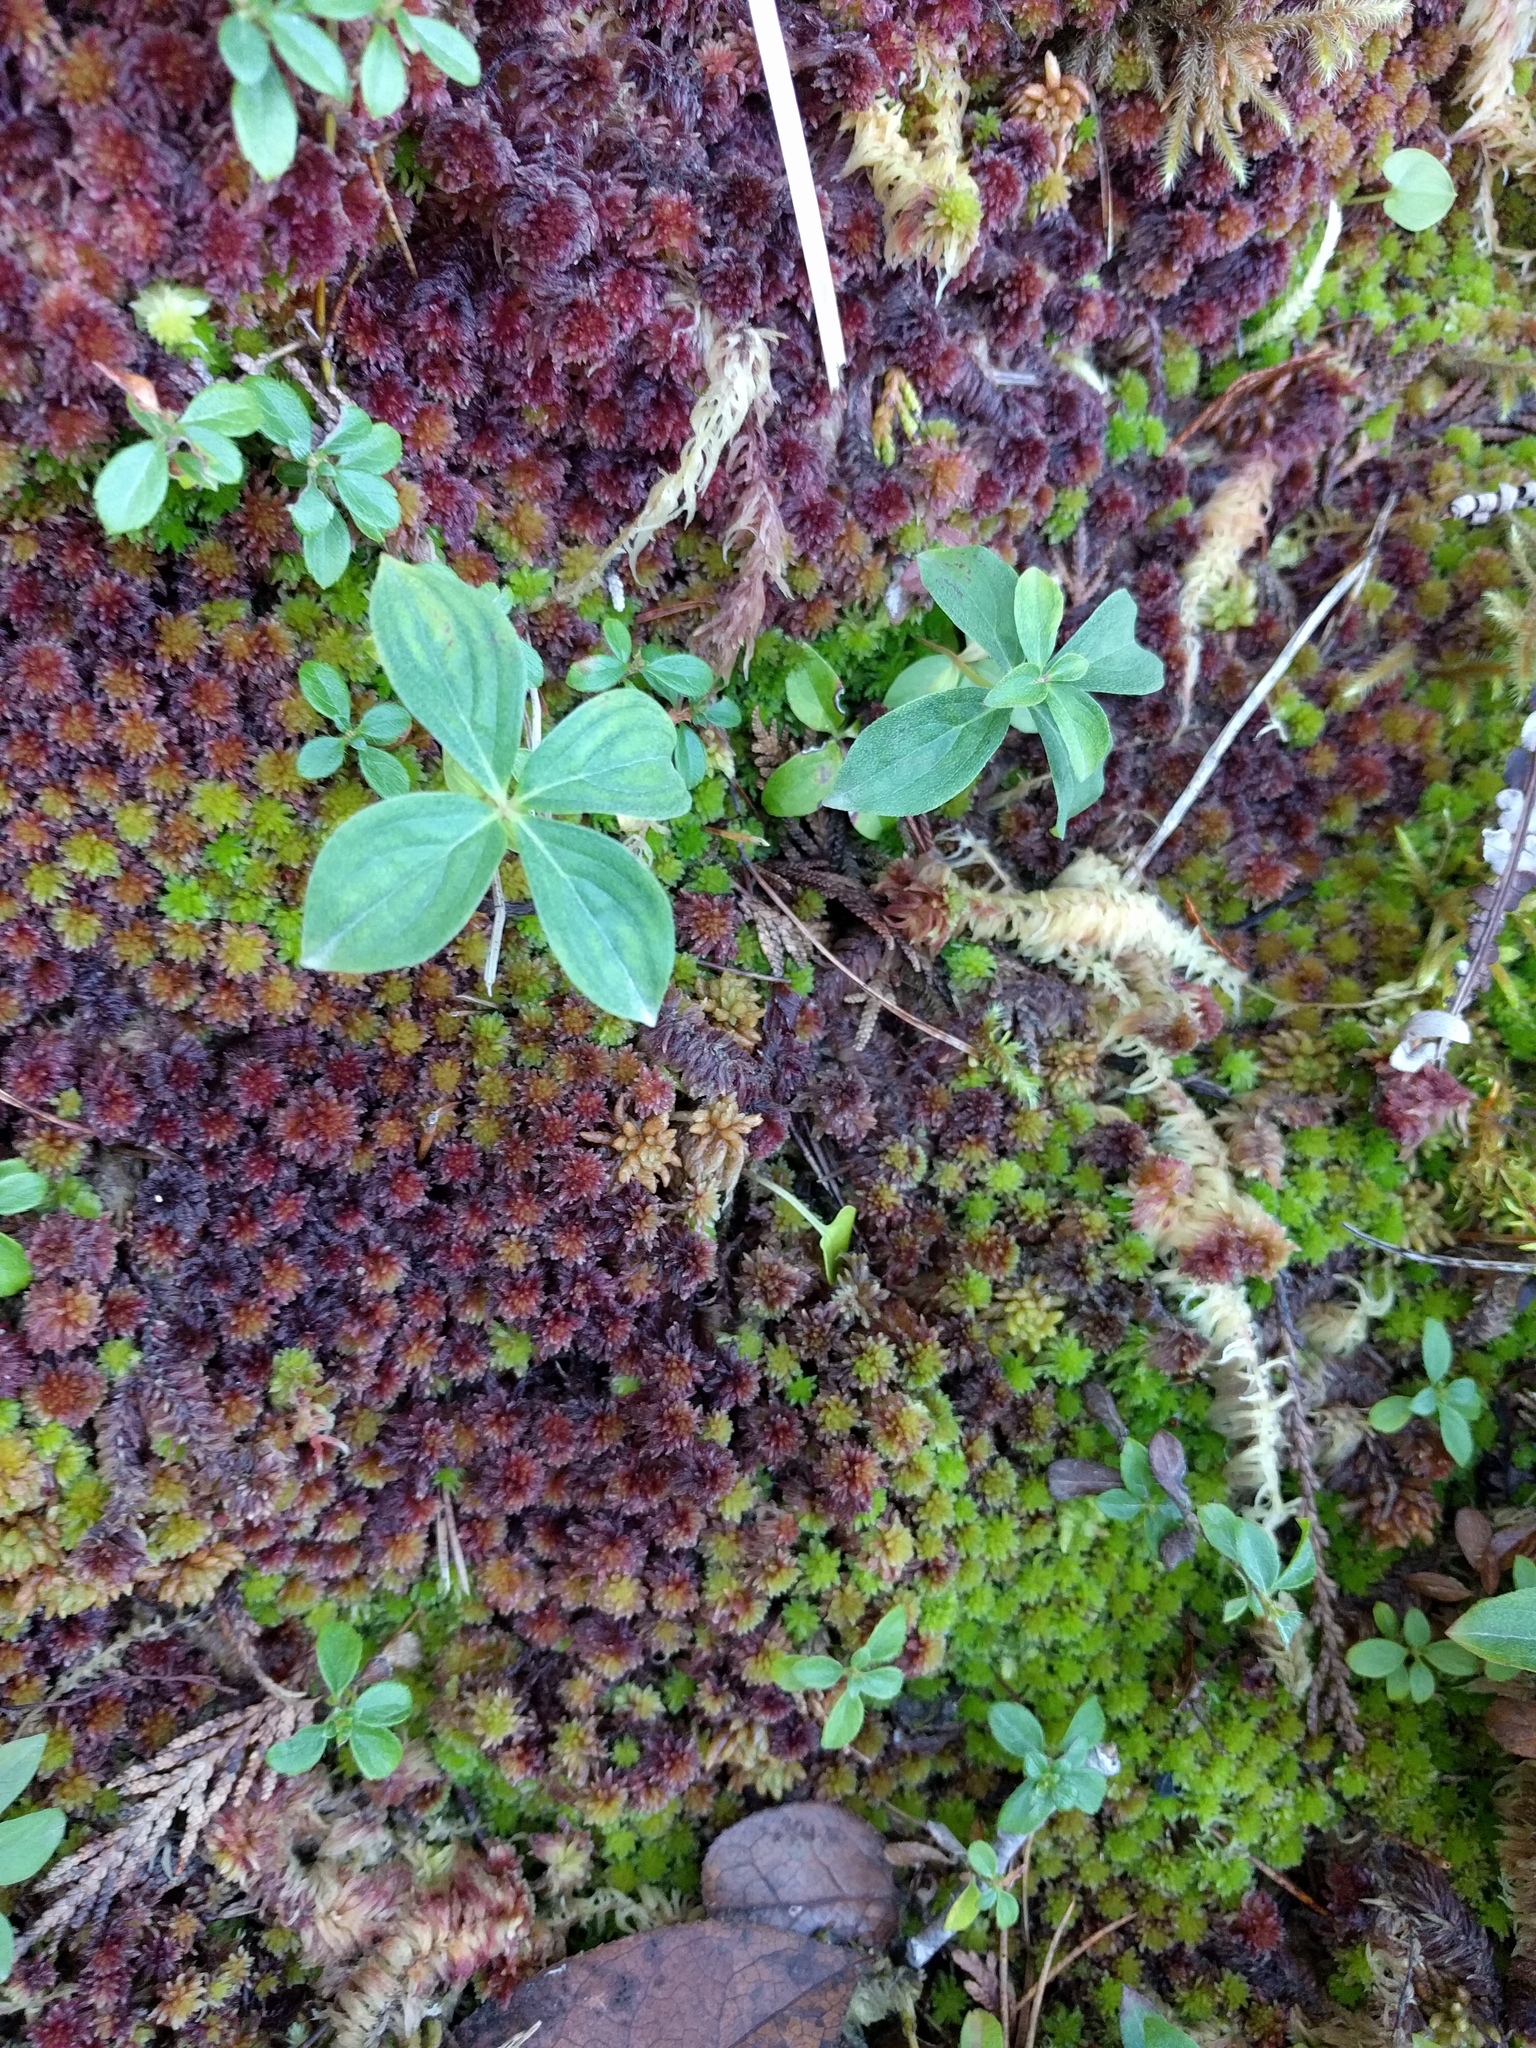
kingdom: Plantae
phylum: Tracheophyta
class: Magnoliopsida
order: Cornales
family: Cornaceae
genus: Cornus
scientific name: Cornus unalaschkensis
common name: Alaska bunchberry
